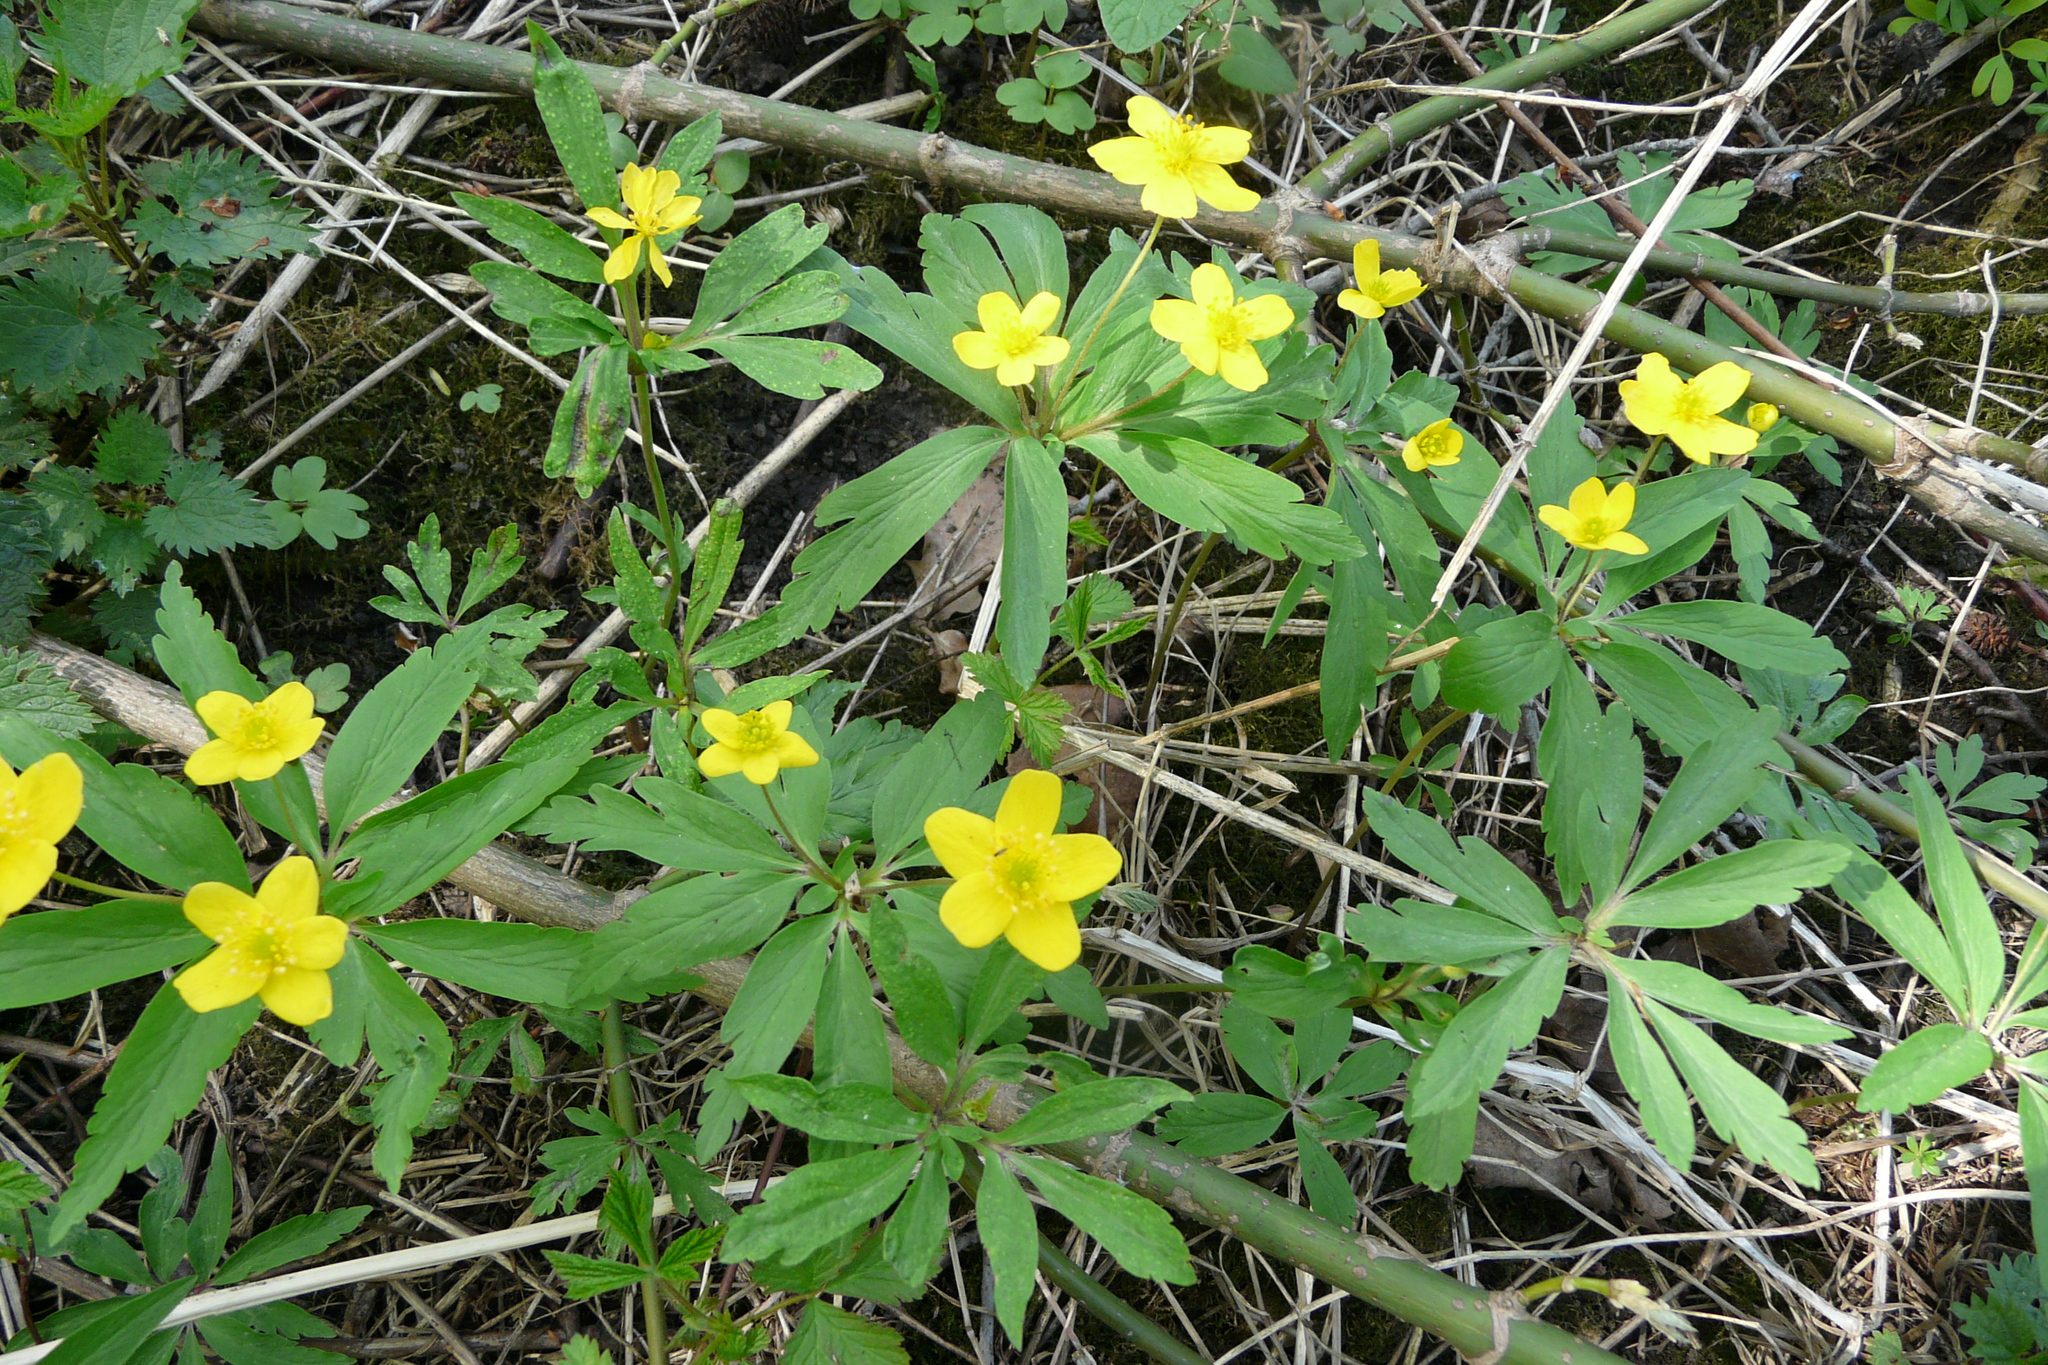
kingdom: Plantae
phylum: Tracheophyta
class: Magnoliopsida
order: Ranunculales
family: Ranunculaceae
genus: Anemone
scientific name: Anemone ranunculoides
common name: Yellow anemone
